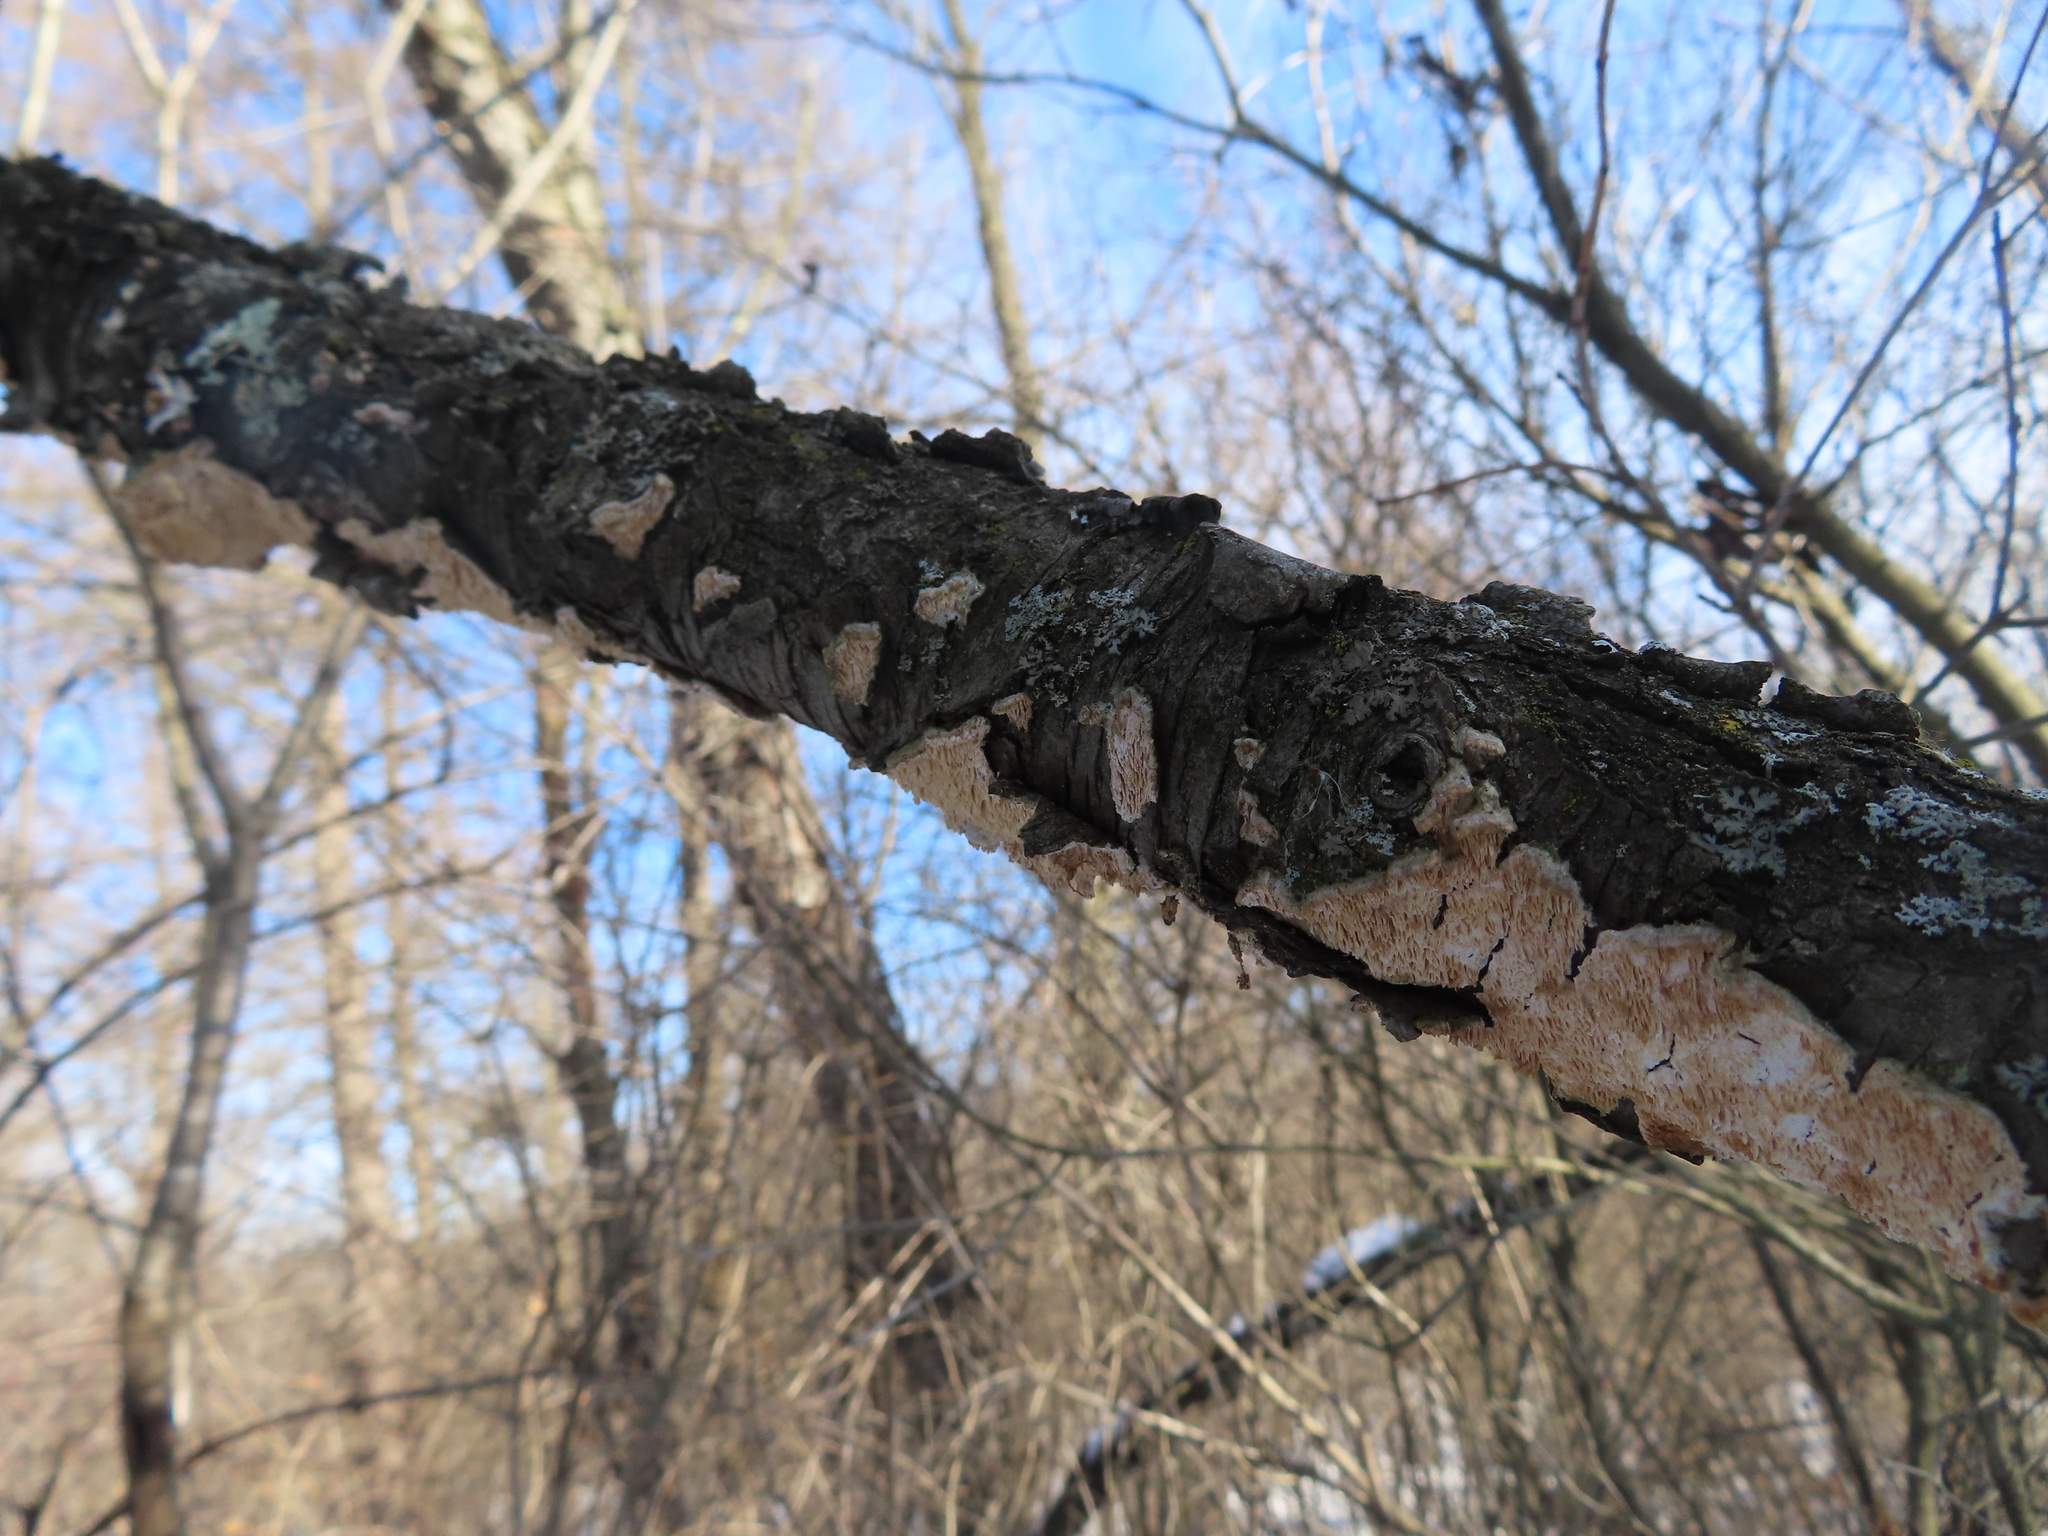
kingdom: Fungi
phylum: Basidiomycota
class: Agaricomycetes
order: Polyporales
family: Irpicaceae
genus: Irpex
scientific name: Irpex lacteus
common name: Milk-white toothed polypore
